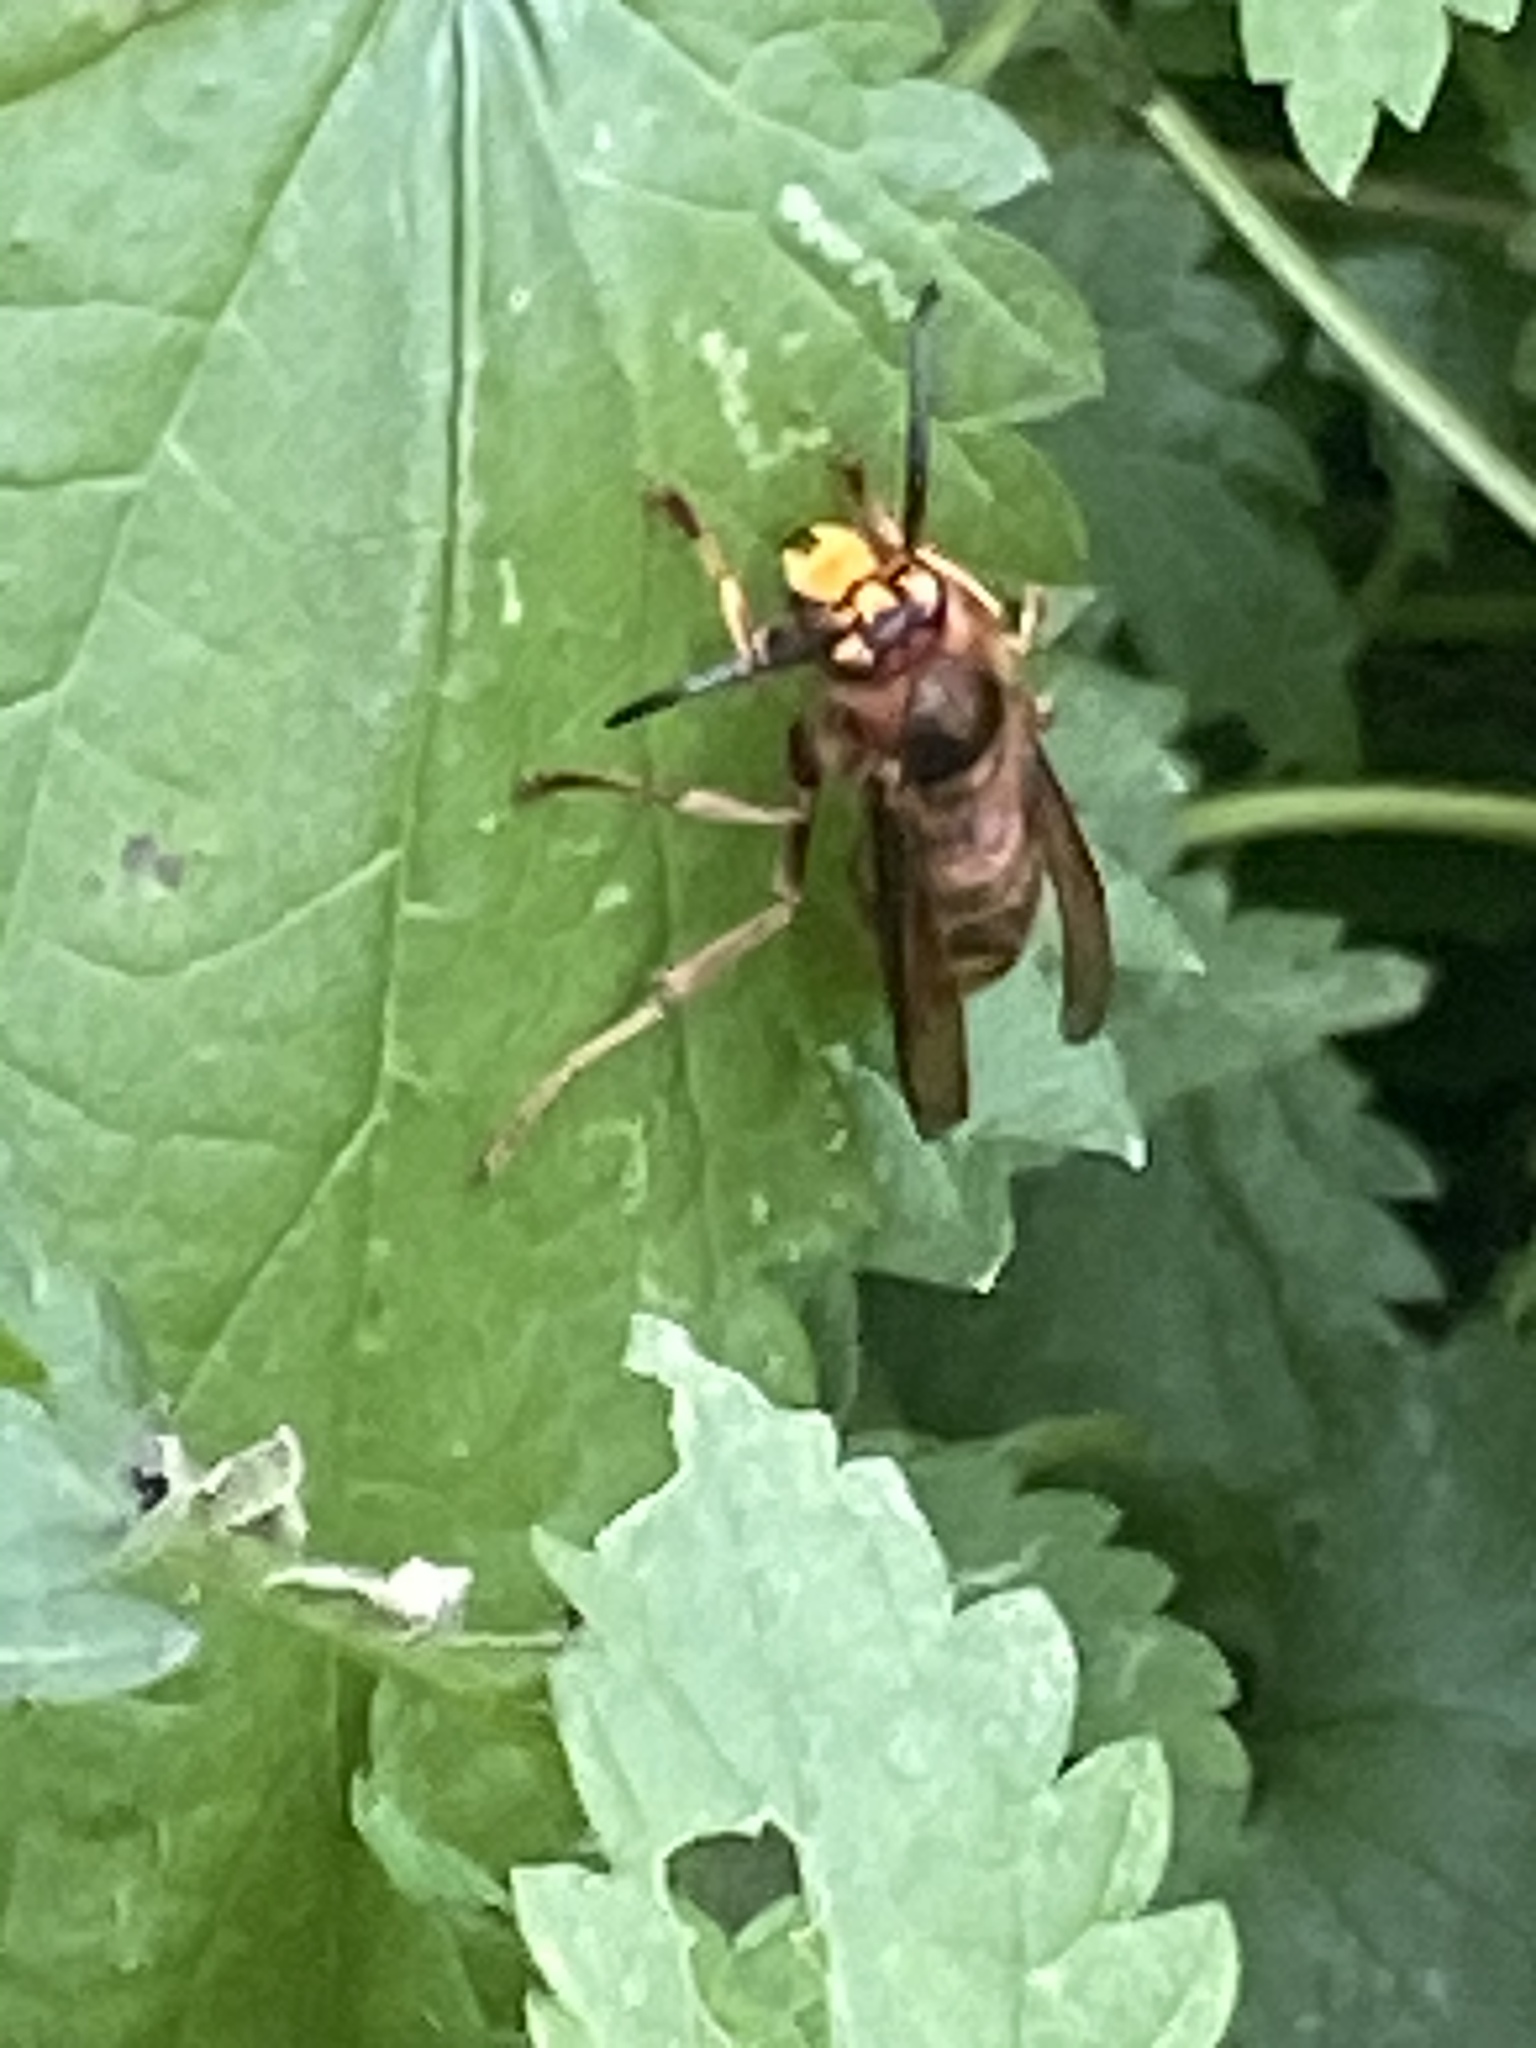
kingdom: Animalia
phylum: Arthropoda
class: Insecta
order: Hymenoptera
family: Vespidae
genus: Vespa
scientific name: Vespa crabro
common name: Hornet
